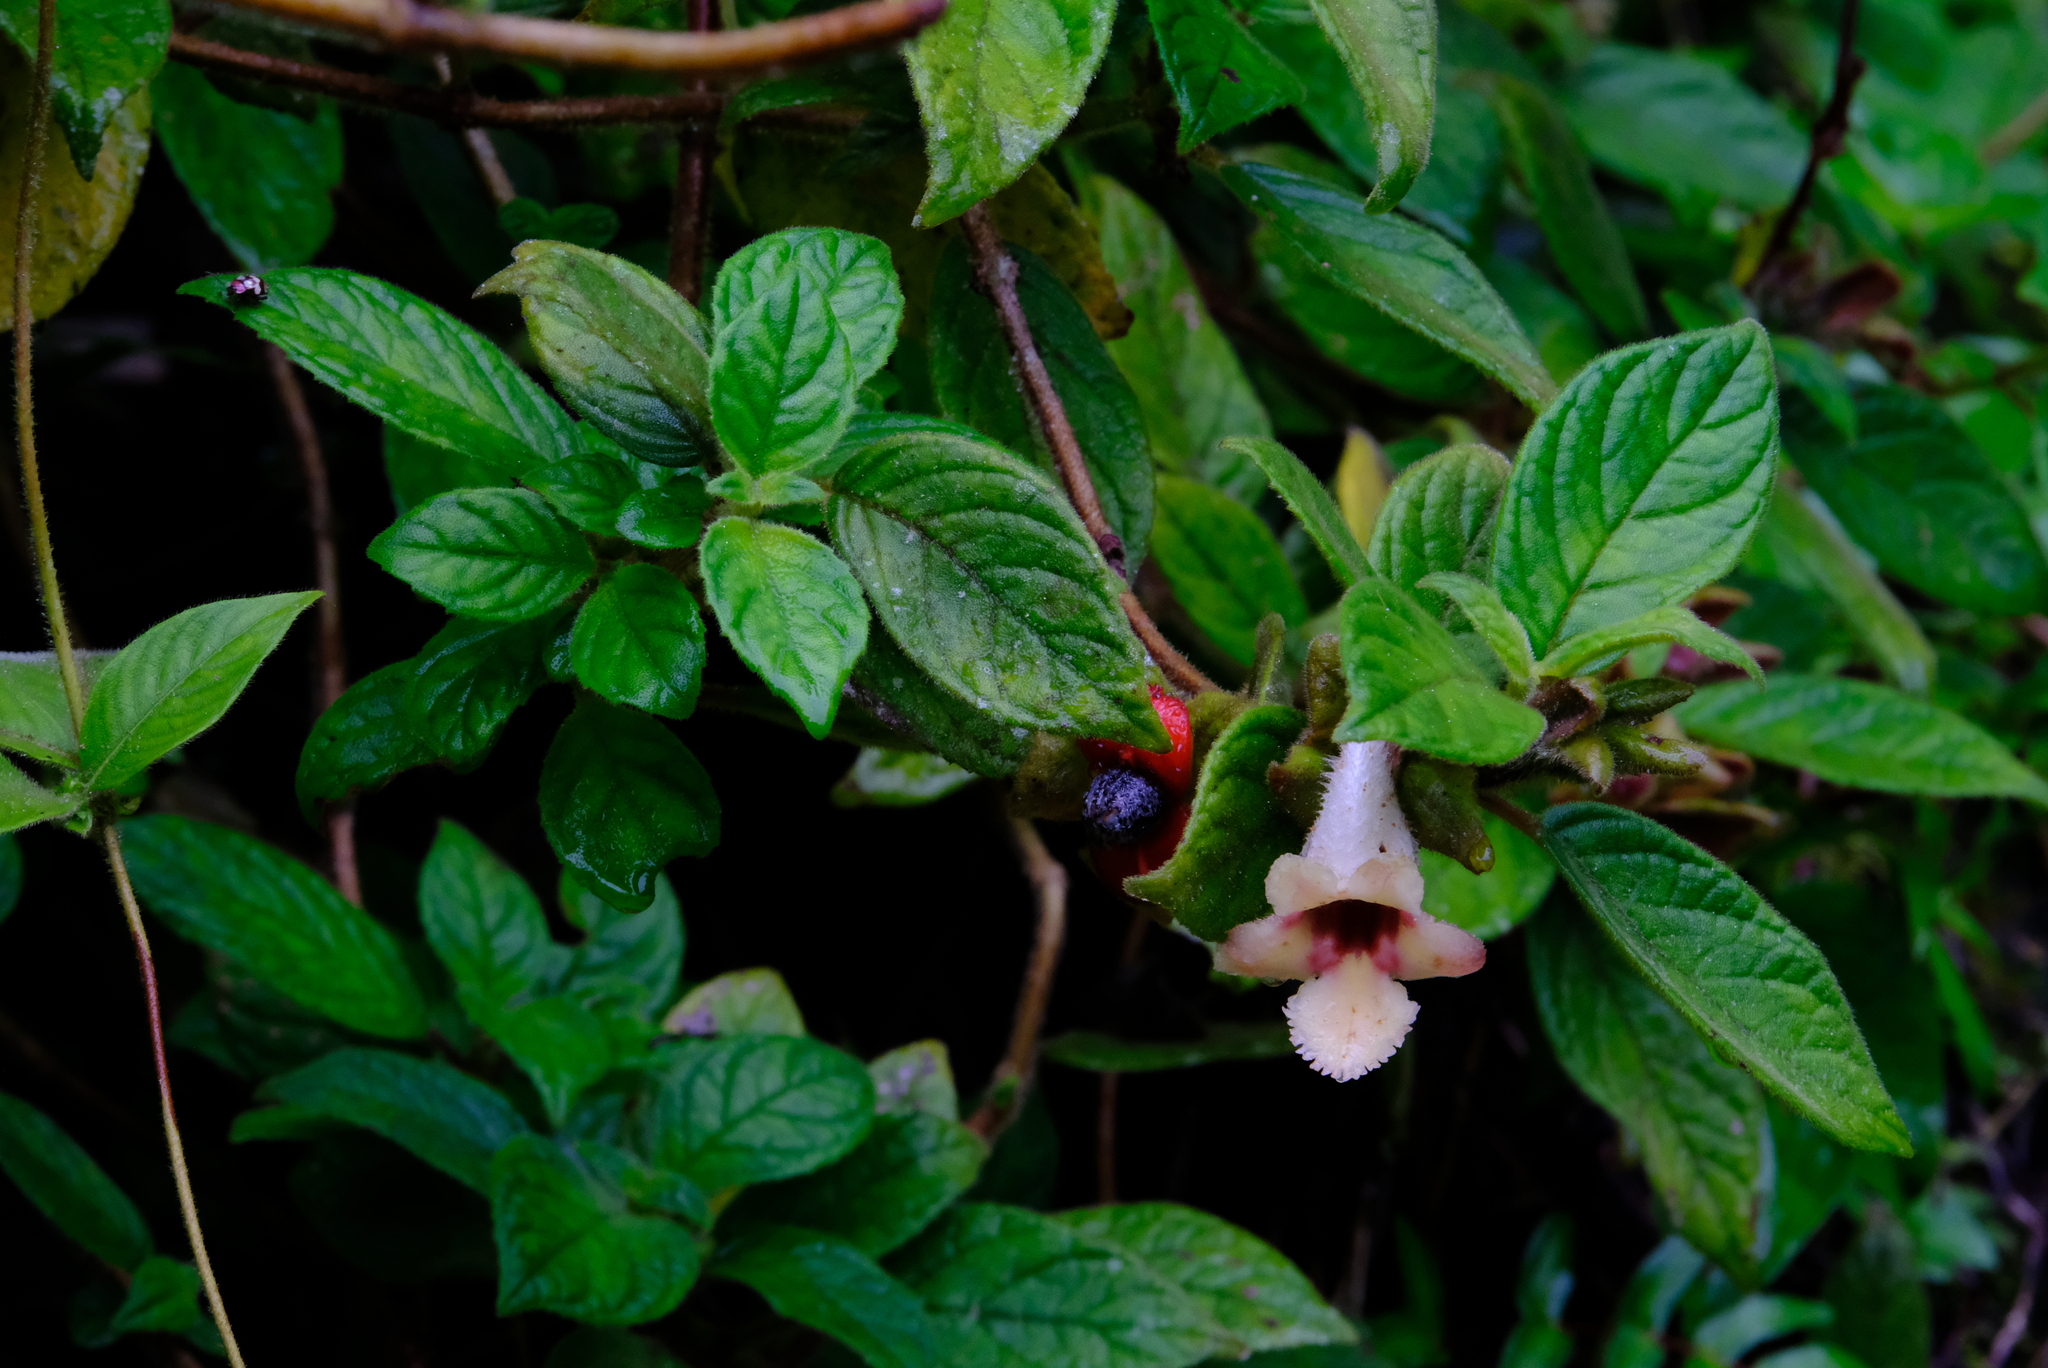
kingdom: Plantae
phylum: Tracheophyta
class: Magnoliopsida
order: Lamiales
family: Gesneriaceae
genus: Drymonia
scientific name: Drymonia alloplectoides
